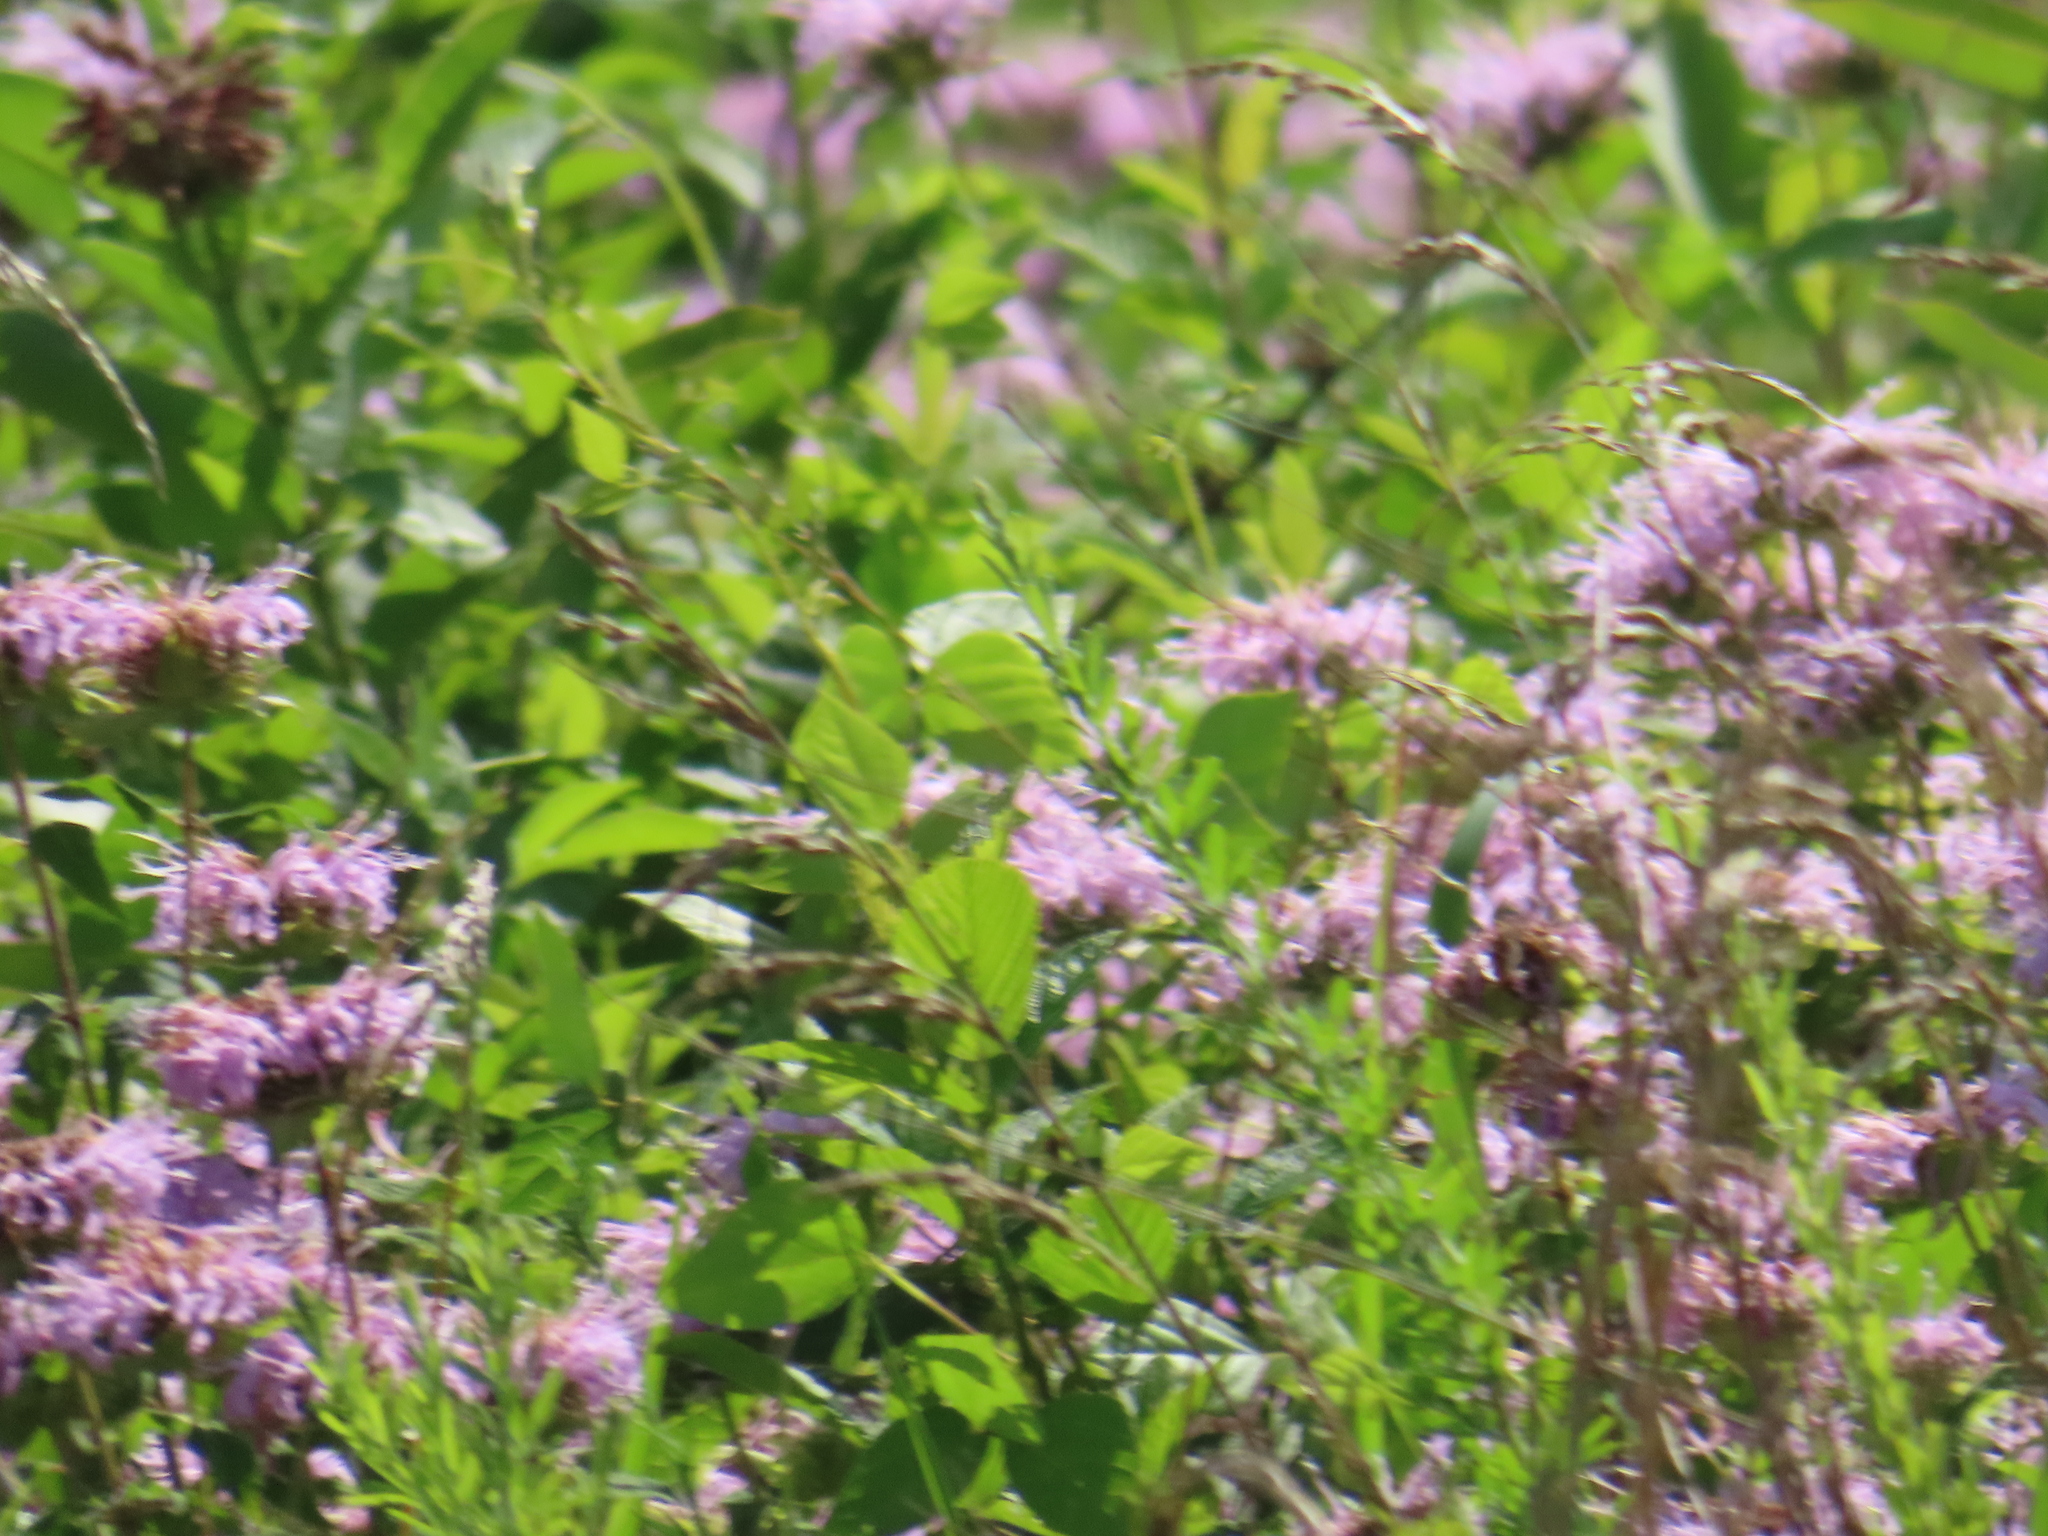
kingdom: Plantae
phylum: Tracheophyta
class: Magnoliopsida
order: Lamiales
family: Lamiaceae
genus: Monarda
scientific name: Monarda fistulosa
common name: Purple beebalm
